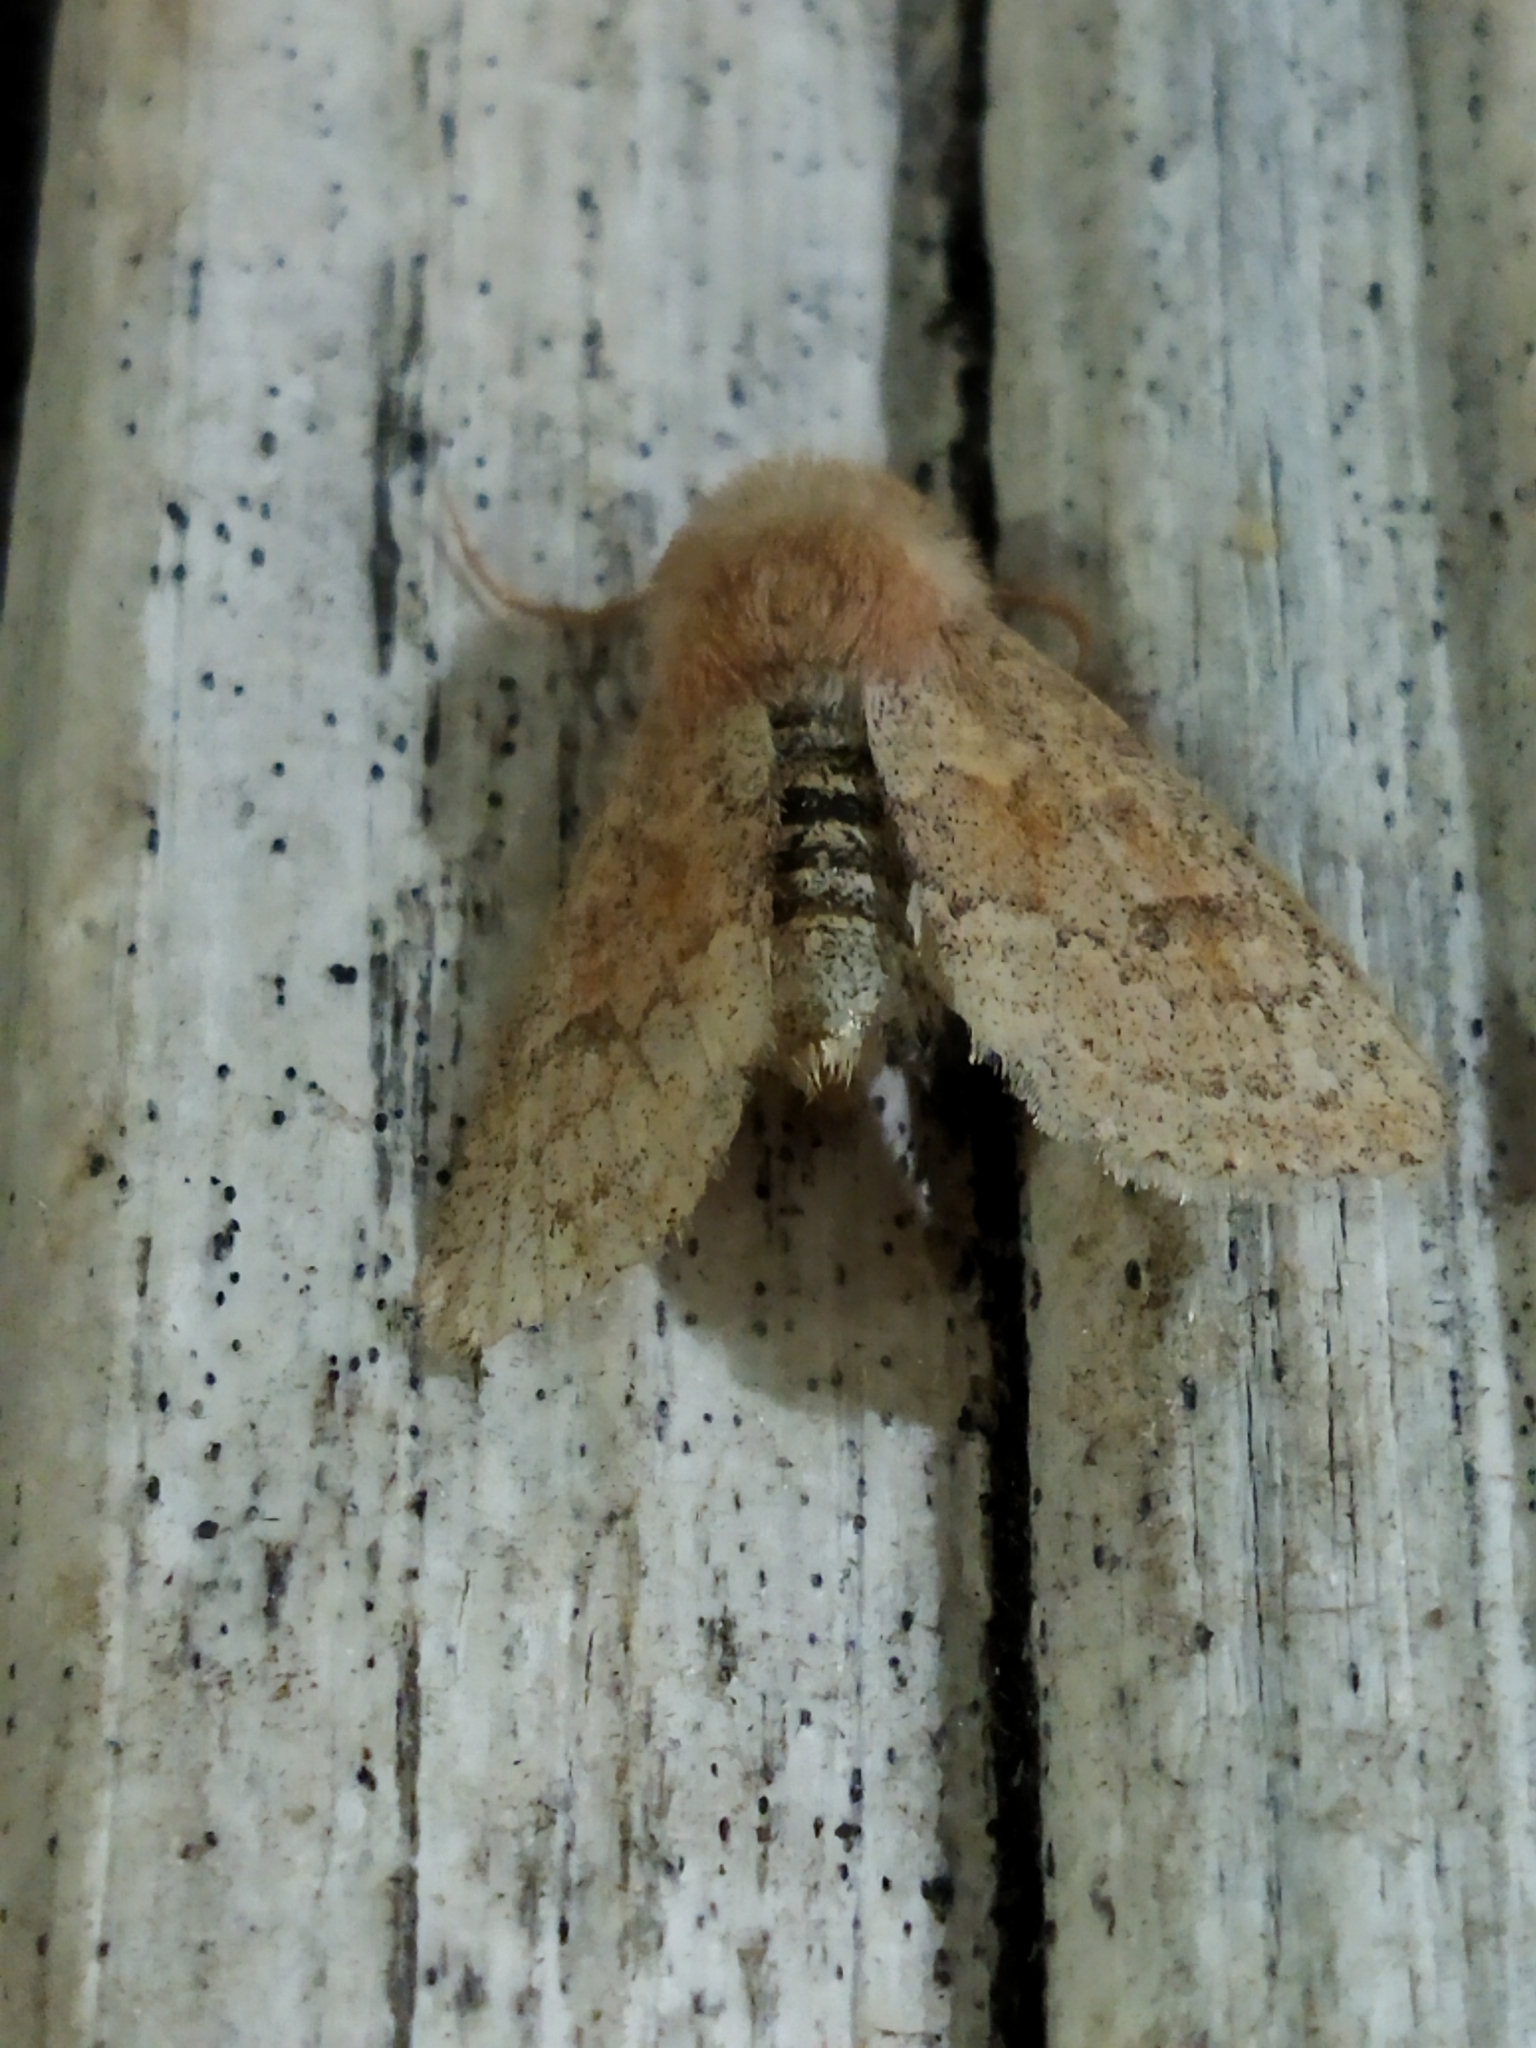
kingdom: Animalia
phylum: Arthropoda
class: Insecta
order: Lepidoptera
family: Noctuidae
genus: Orthosia
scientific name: Orthosia miniosa
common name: Blossom underwing
